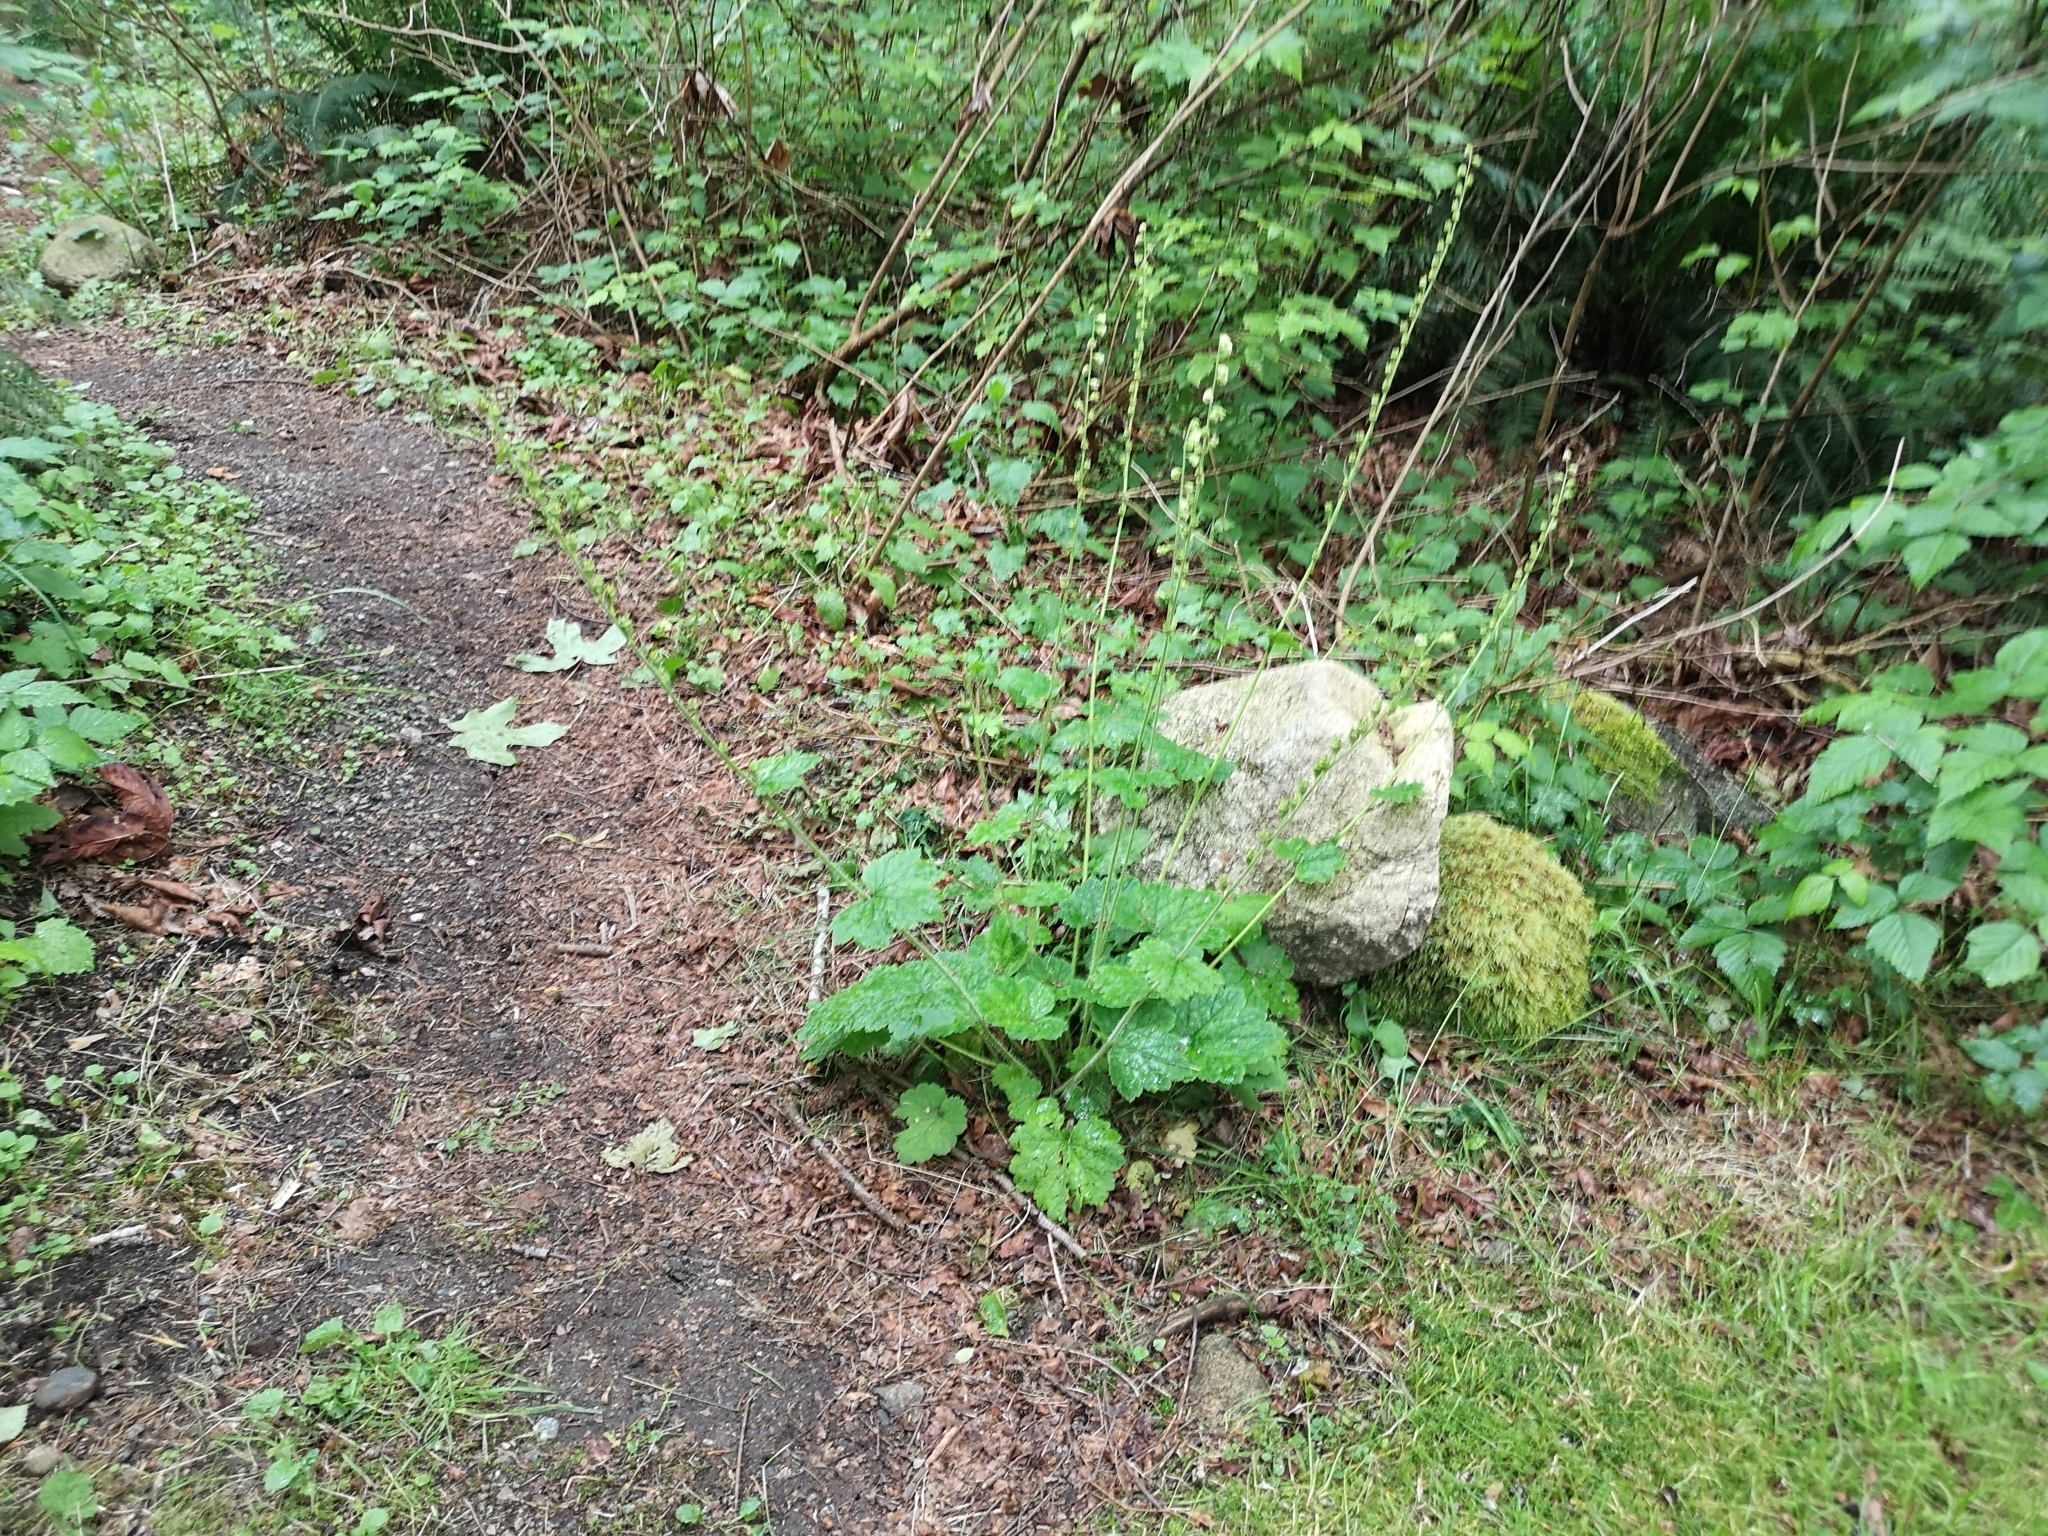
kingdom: Plantae
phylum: Tracheophyta
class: Magnoliopsida
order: Saxifragales
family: Saxifragaceae
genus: Tellima
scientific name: Tellima grandiflora
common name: Fringecups
